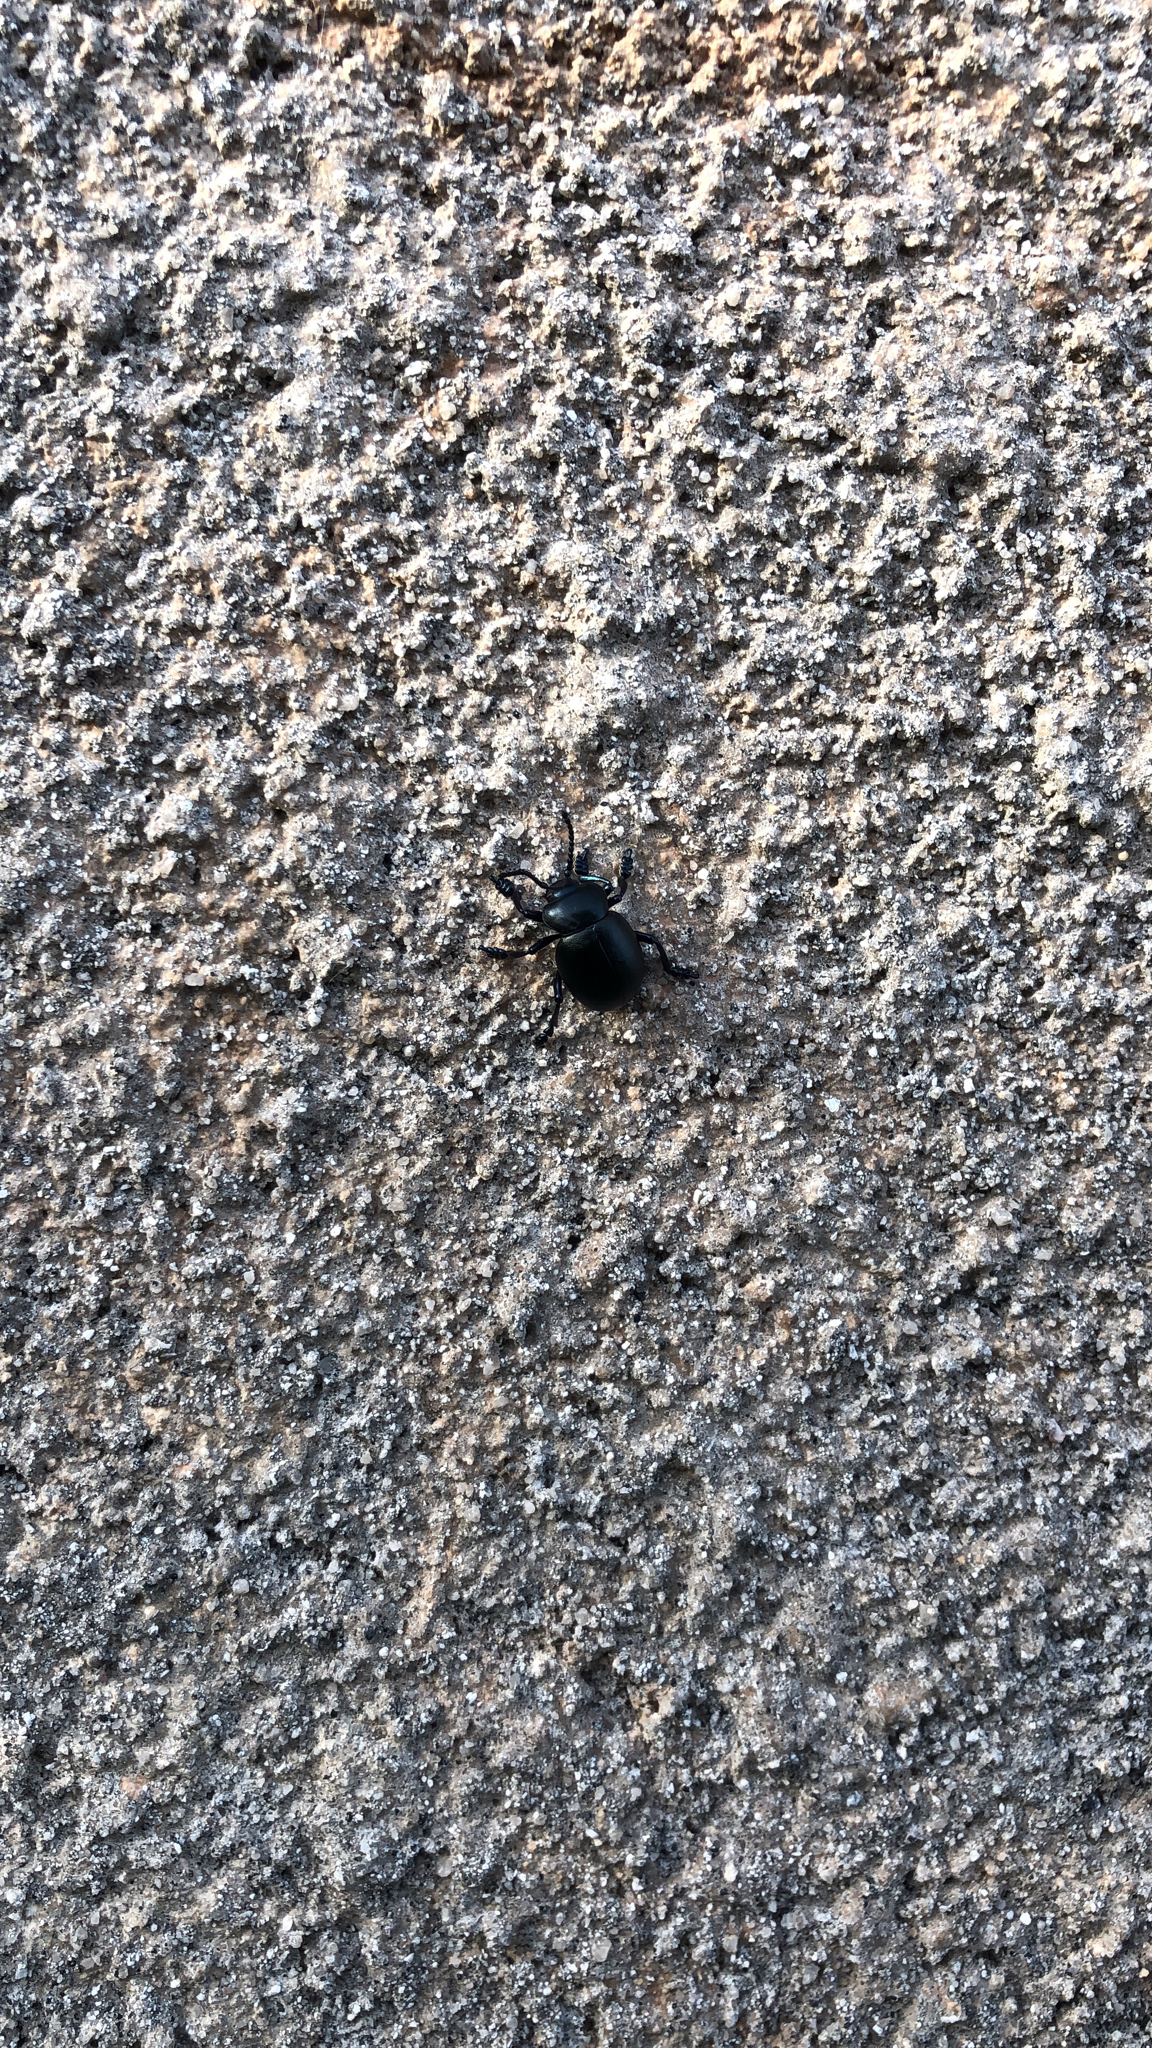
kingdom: Animalia
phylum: Arthropoda
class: Insecta
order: Coleoptera
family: Chrysomelidae
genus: Timarcha
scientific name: Timarcha tenebricosa
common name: Bloody-nosed beetle
